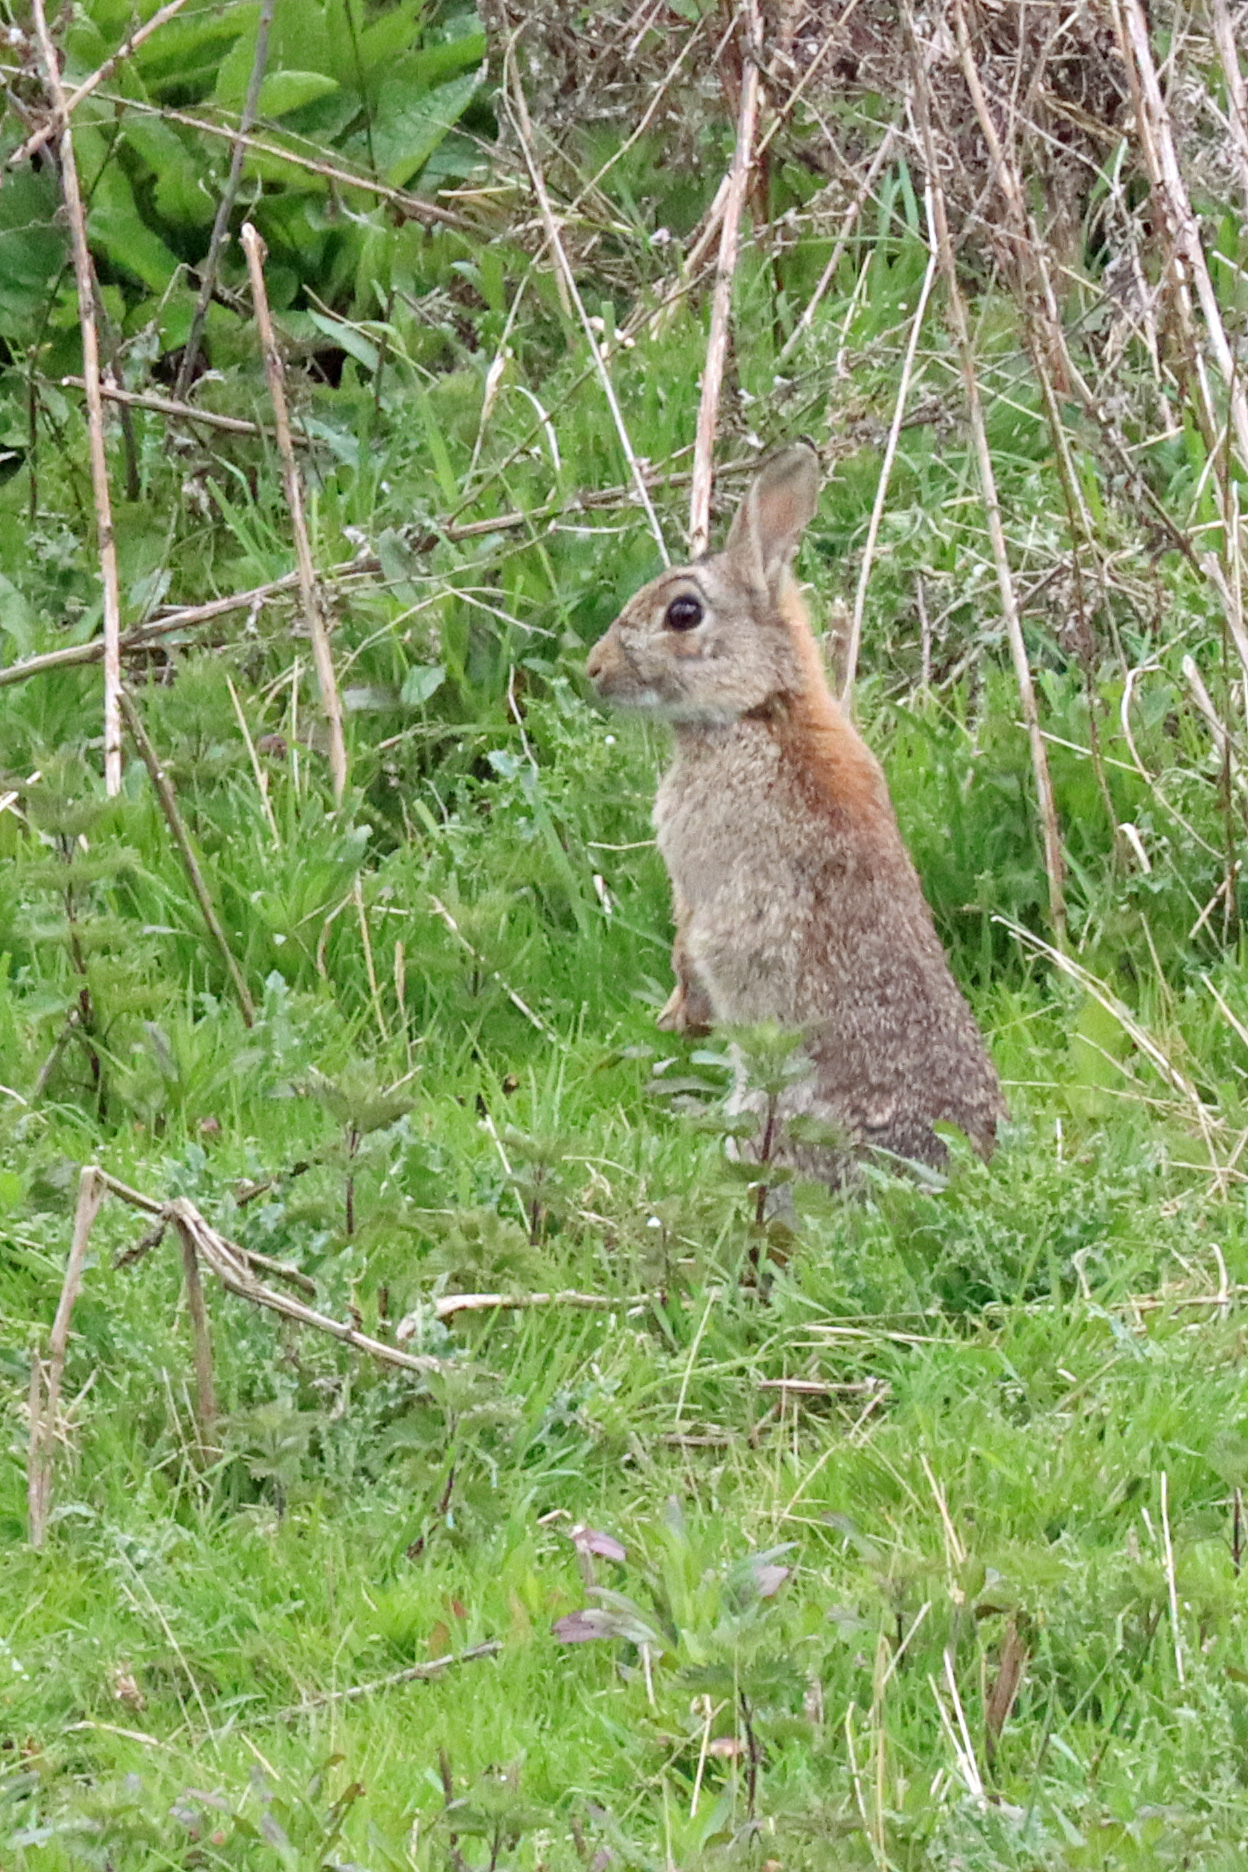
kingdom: Animalia
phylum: Chordata
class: Mammalia
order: Lagomorpha
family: Leporidae
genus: Oryctolagus
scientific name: Oryctolagus cuniculus
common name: European rabbit
